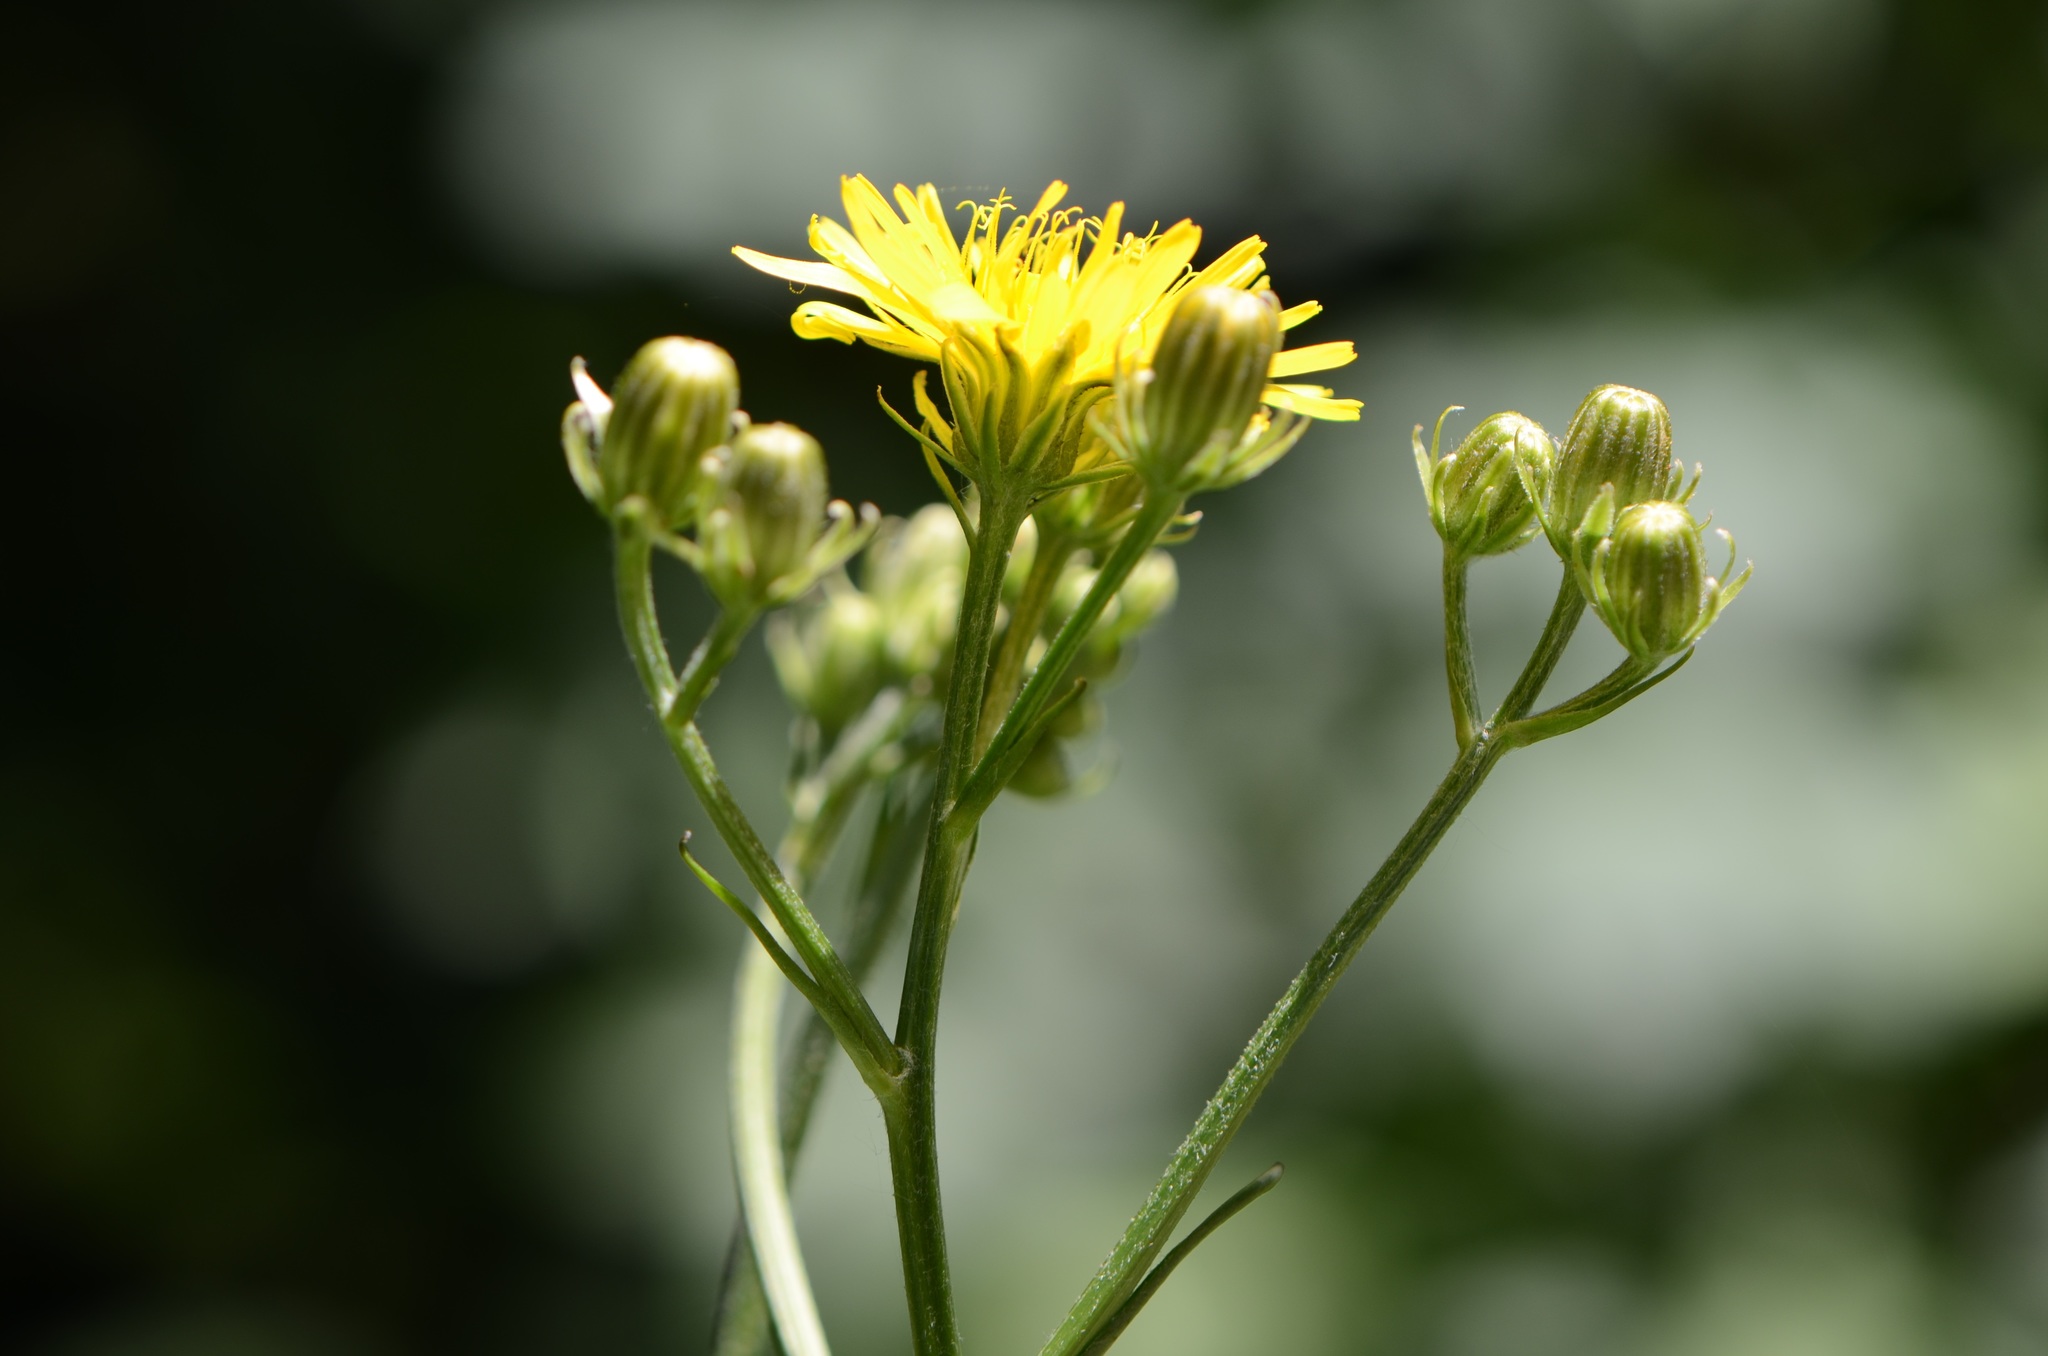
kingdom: Plantae
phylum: Tracheophyta
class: Magnoliopsida
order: Asterales
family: Asteraceae
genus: Crepis
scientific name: Crepis biennis
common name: Rough hawk's-beard
